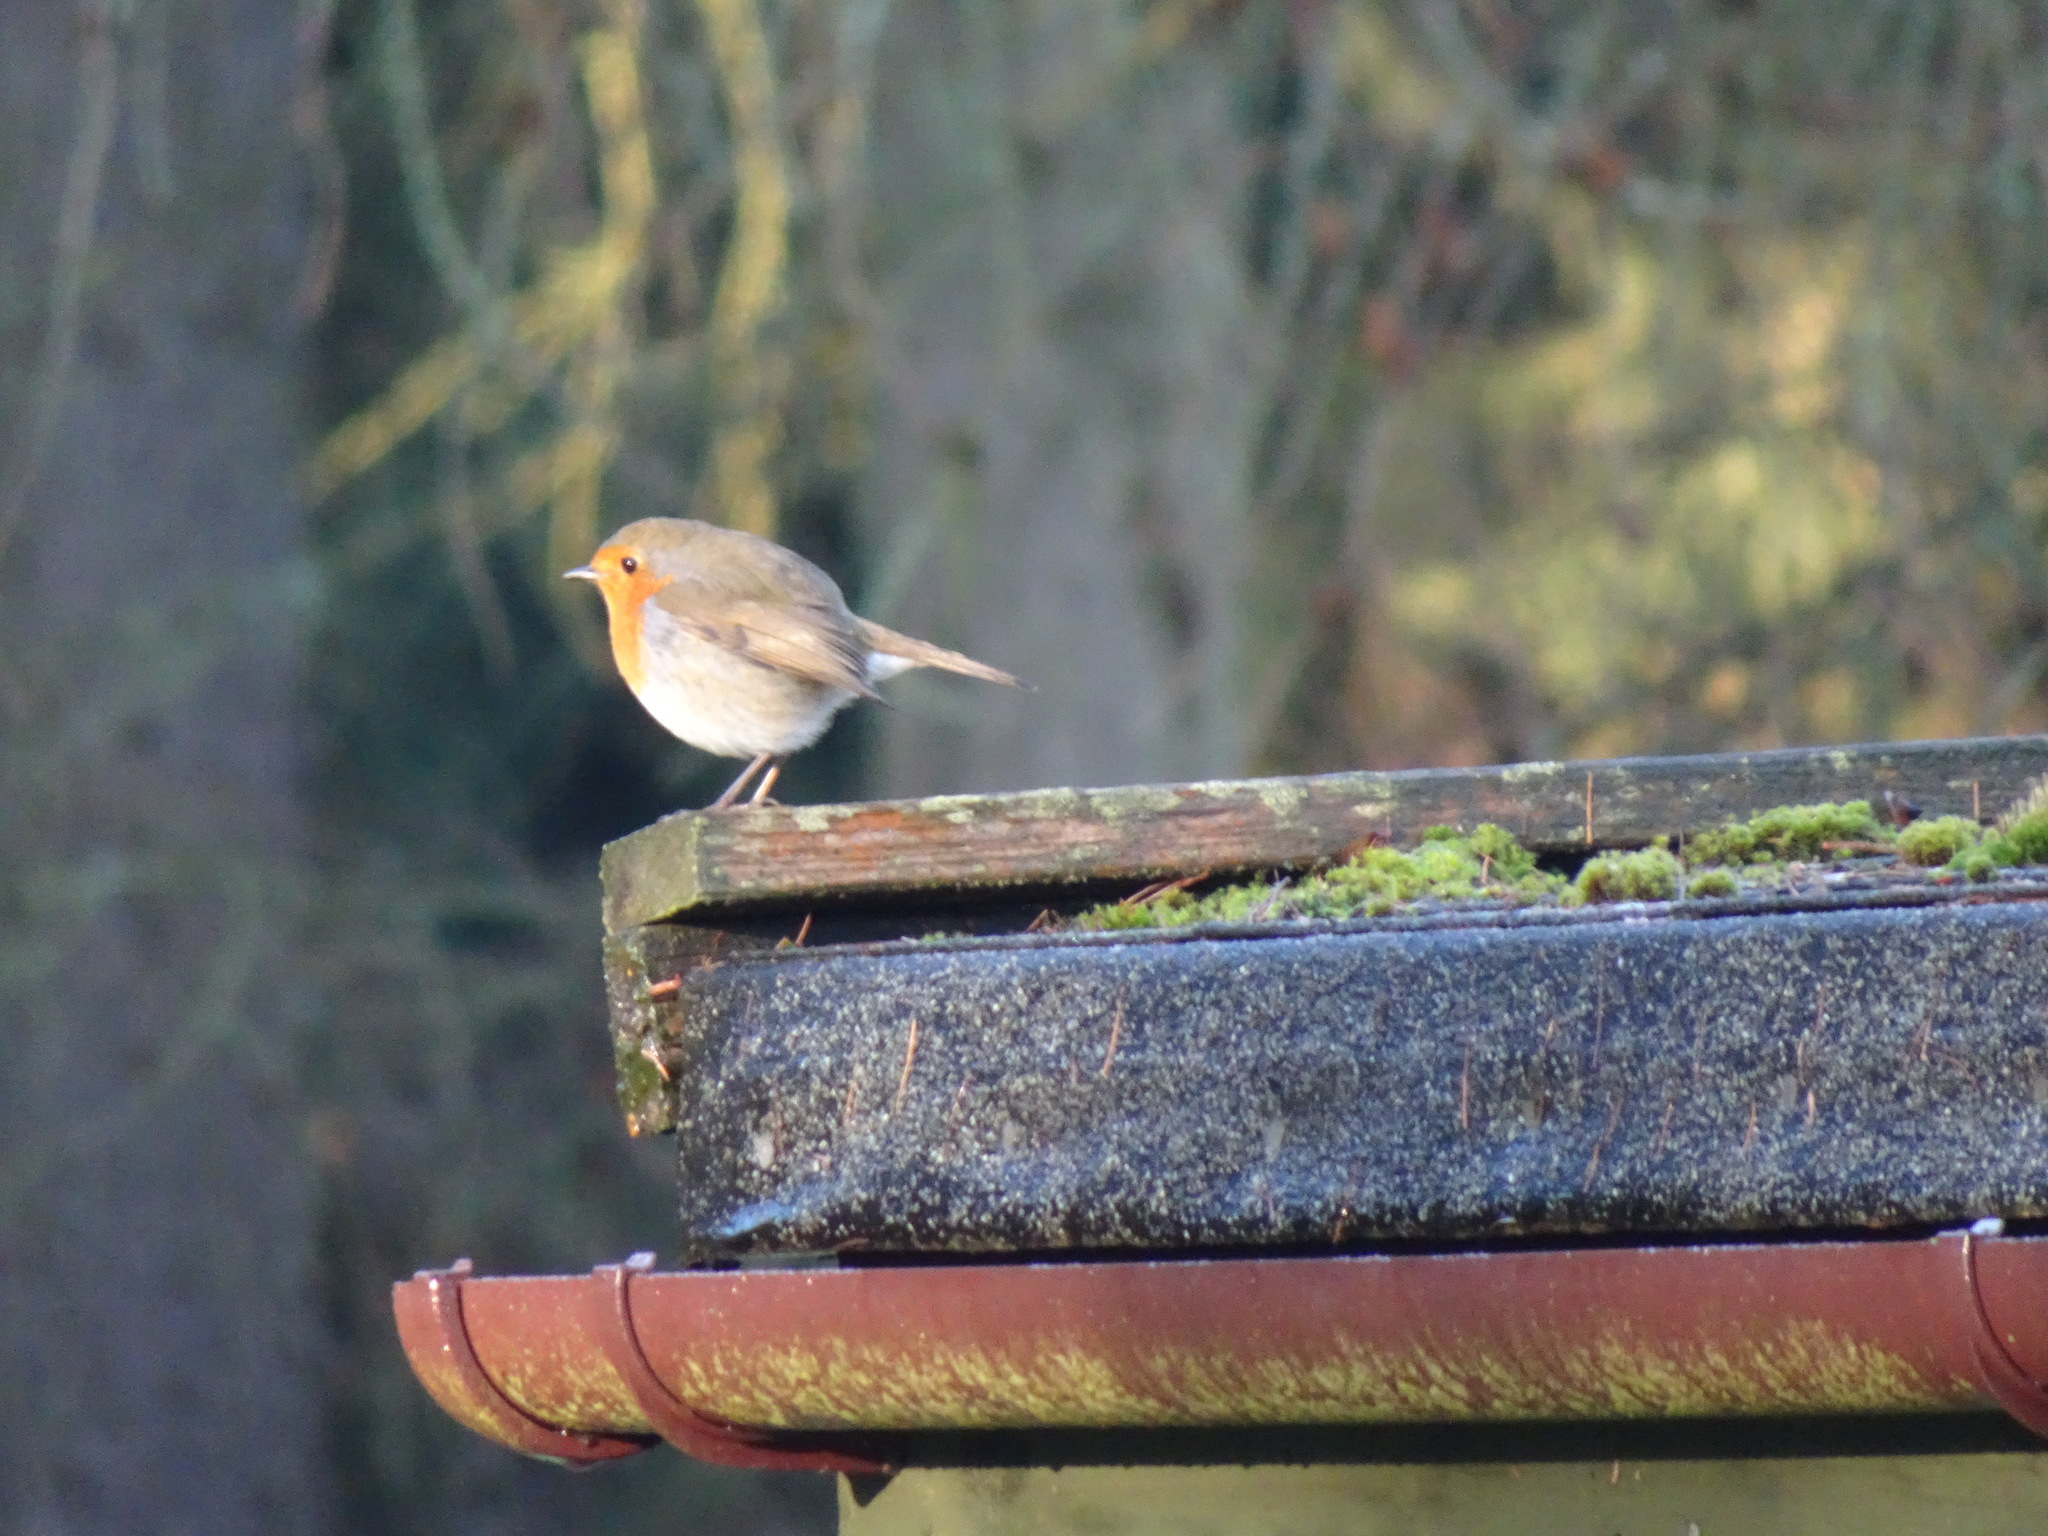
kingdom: Animalia
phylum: Chordata
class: Aves
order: Passeriformes
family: Muscicapidae
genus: Erithacus
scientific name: Erithacus rubecula
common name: European robin
